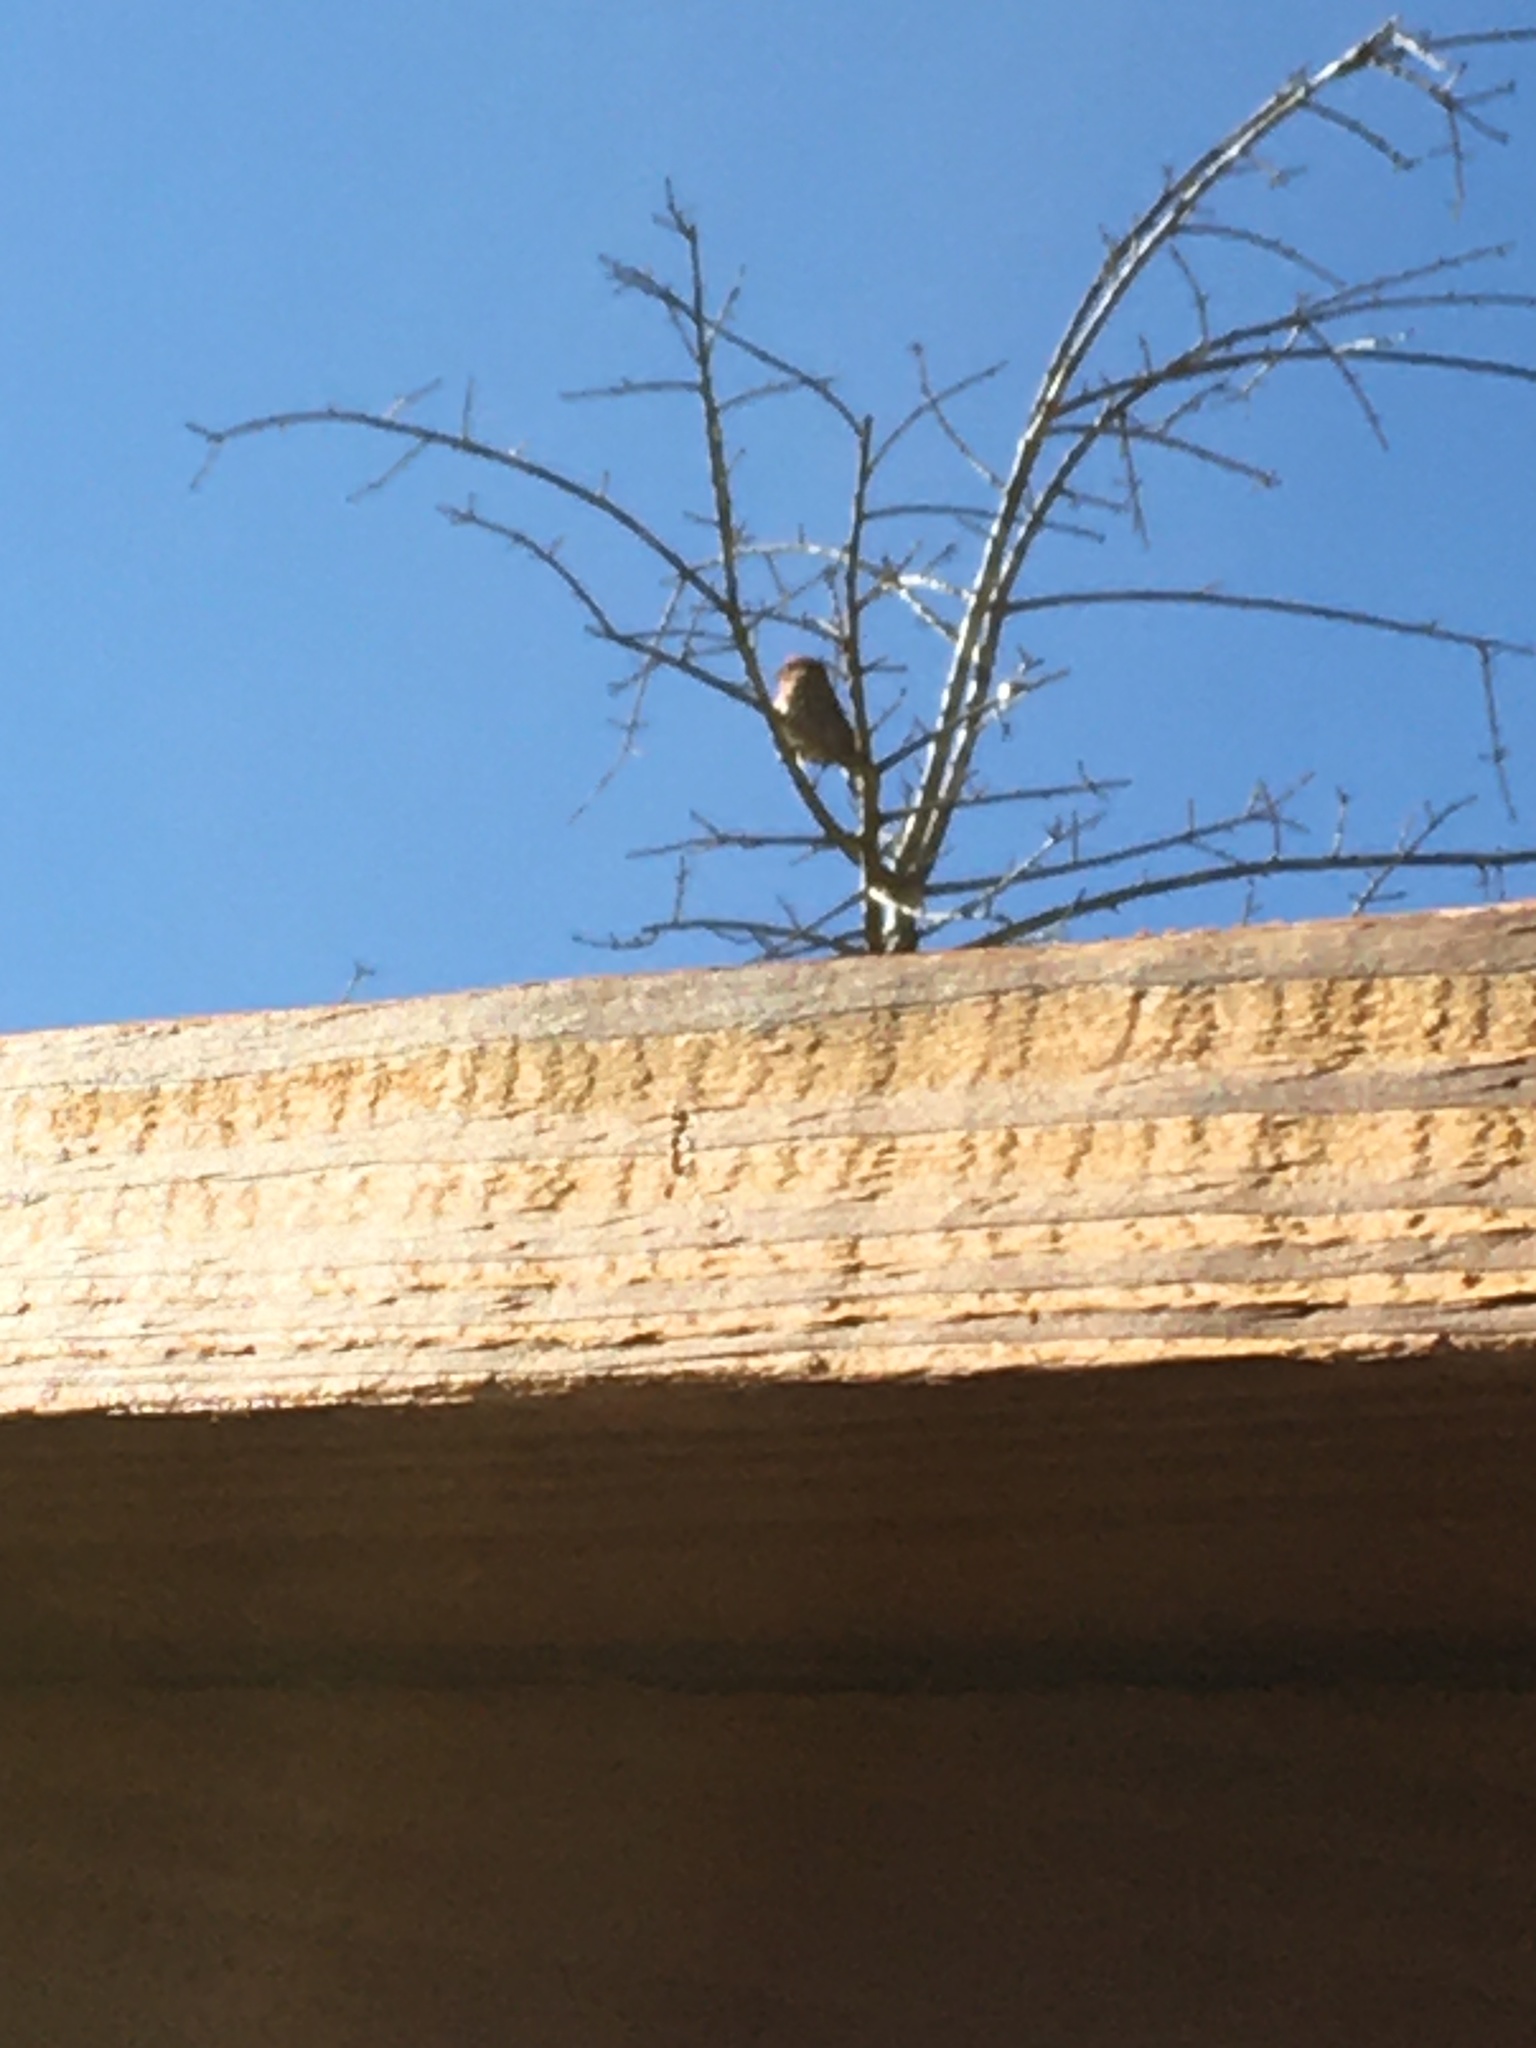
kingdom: Animalia
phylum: Chordata
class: Aves
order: Passeriformes
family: Fringillidae
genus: Haemorhous
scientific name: Haemorhous mexicanus
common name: House finch
